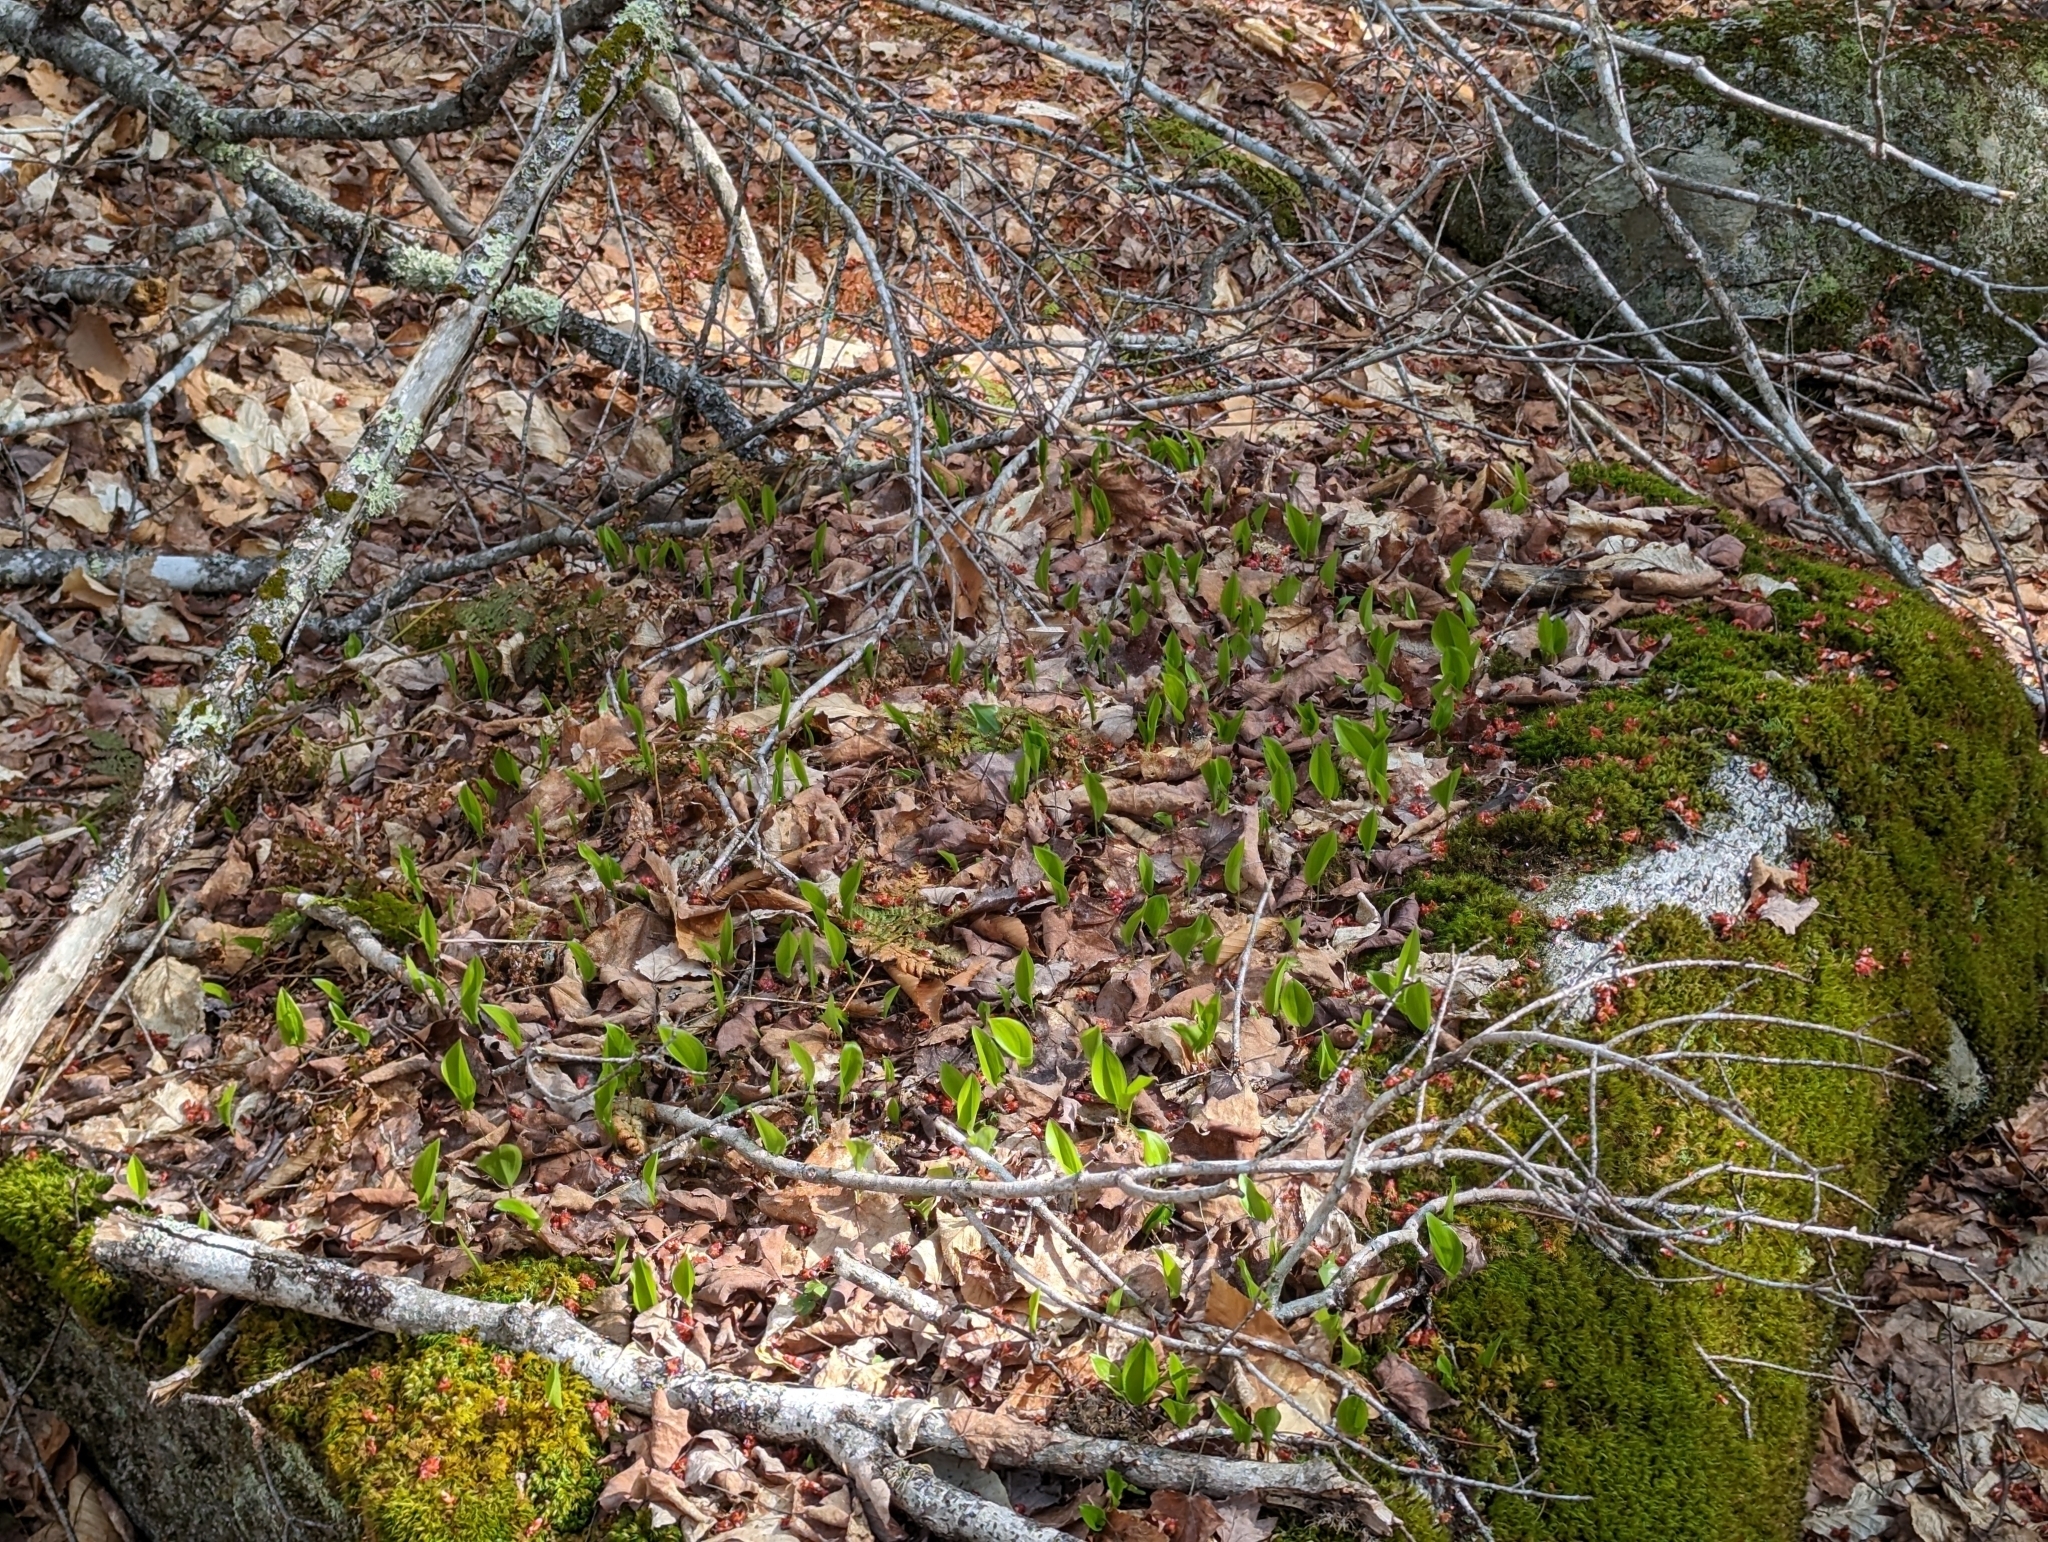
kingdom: Plantae
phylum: Tracheophyta
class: Liliopsida
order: Asparagales
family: Asparagaceae
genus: Maianthemum
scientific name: Maianthemum canadense
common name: False lily-of-the-valley
